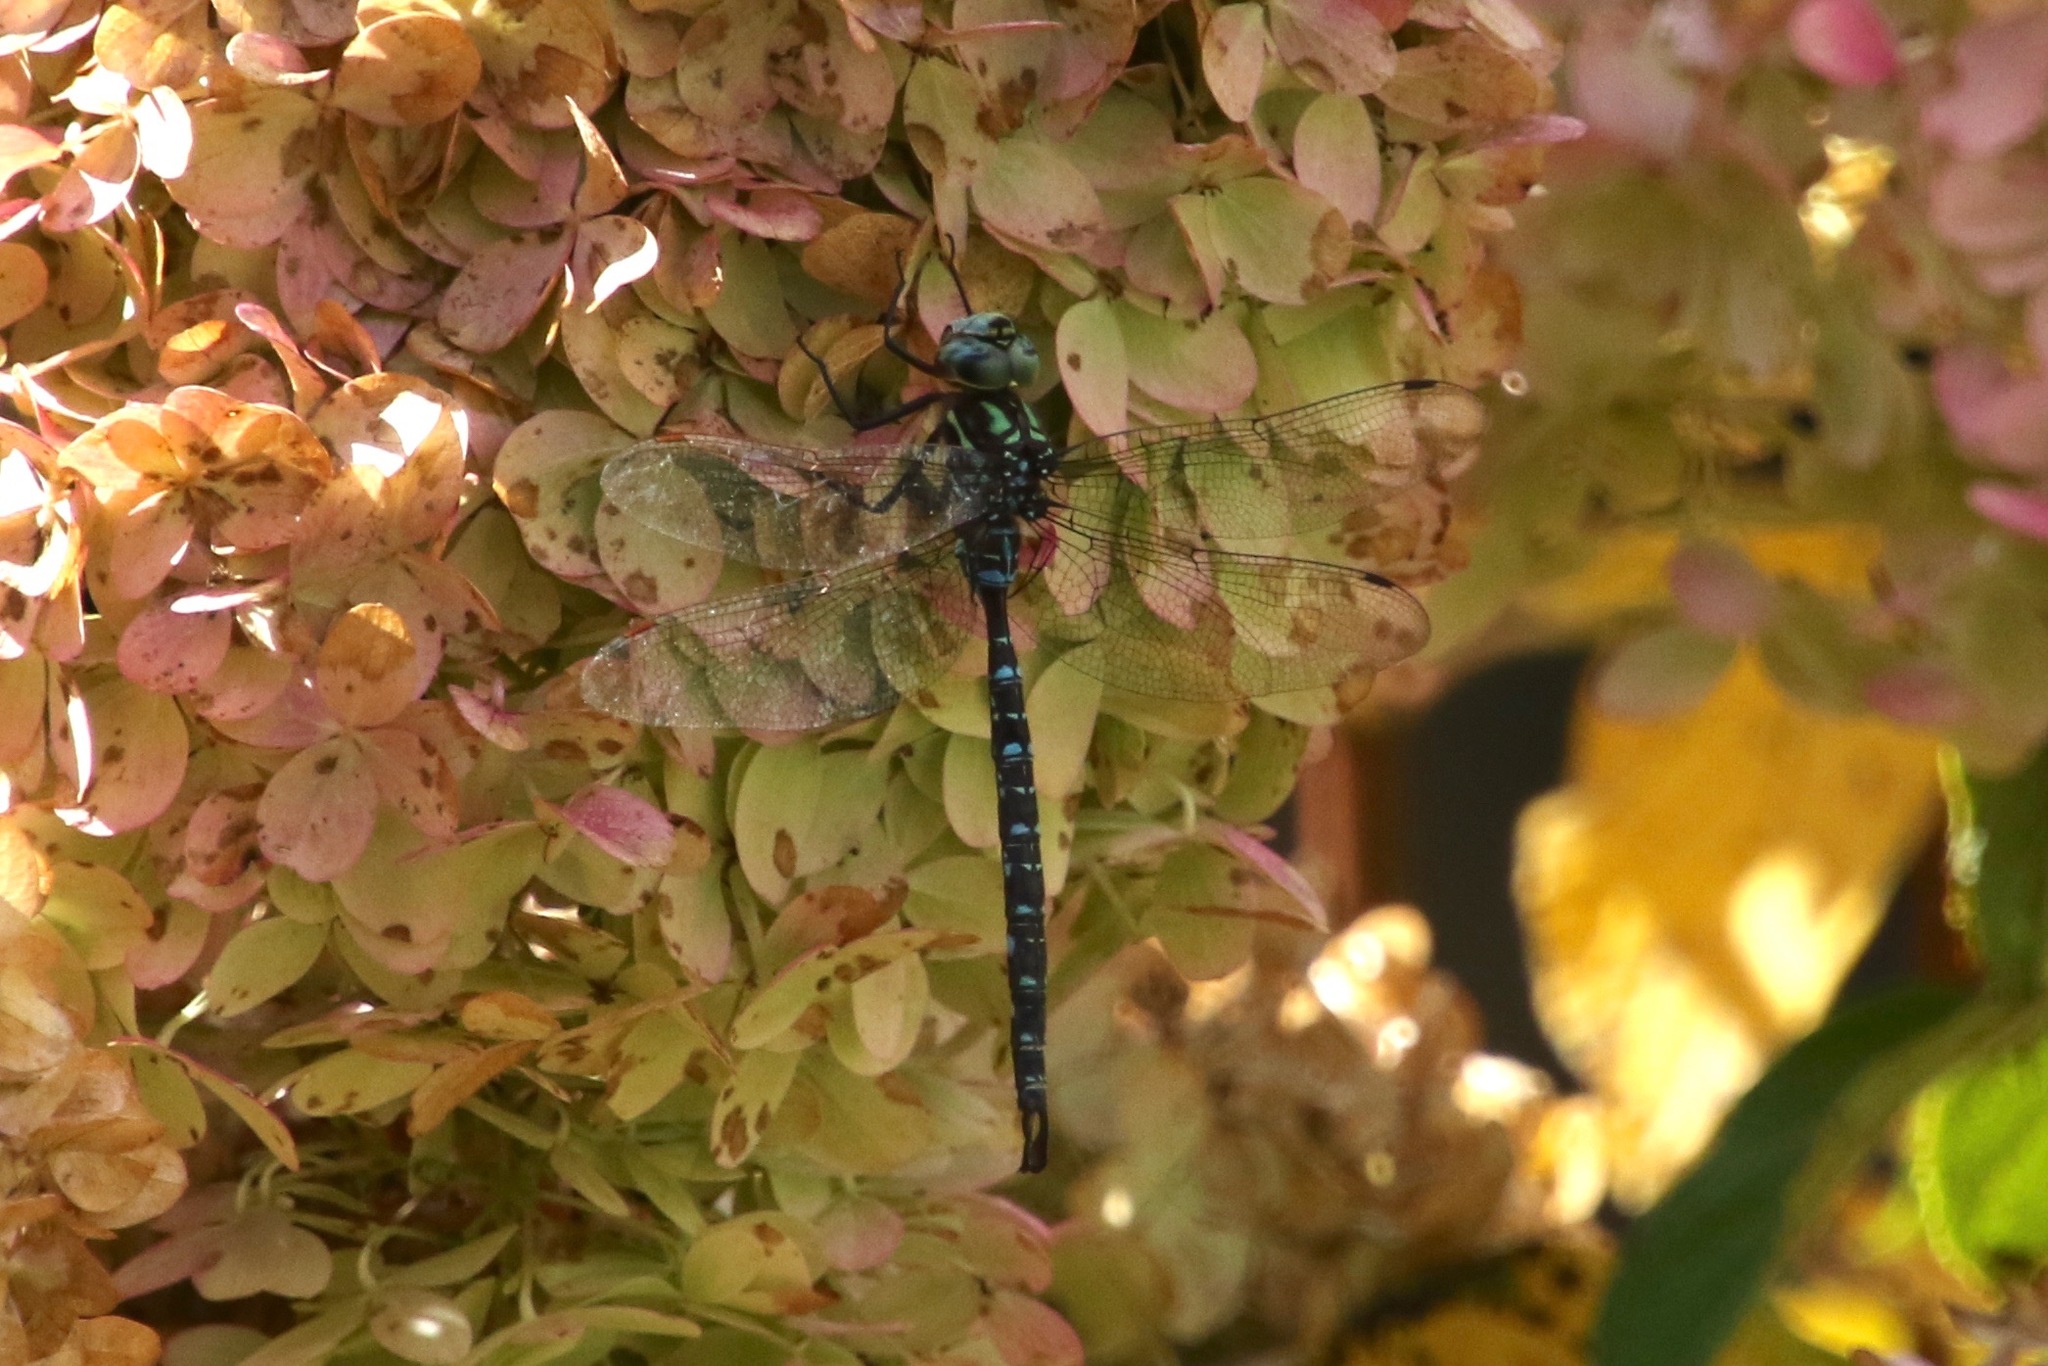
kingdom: Animalia
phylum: Arthropoda
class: Insecta
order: Odonata
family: Aeshnidae
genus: Aeshna
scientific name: Aeshna umbrosa
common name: Shadow darner
